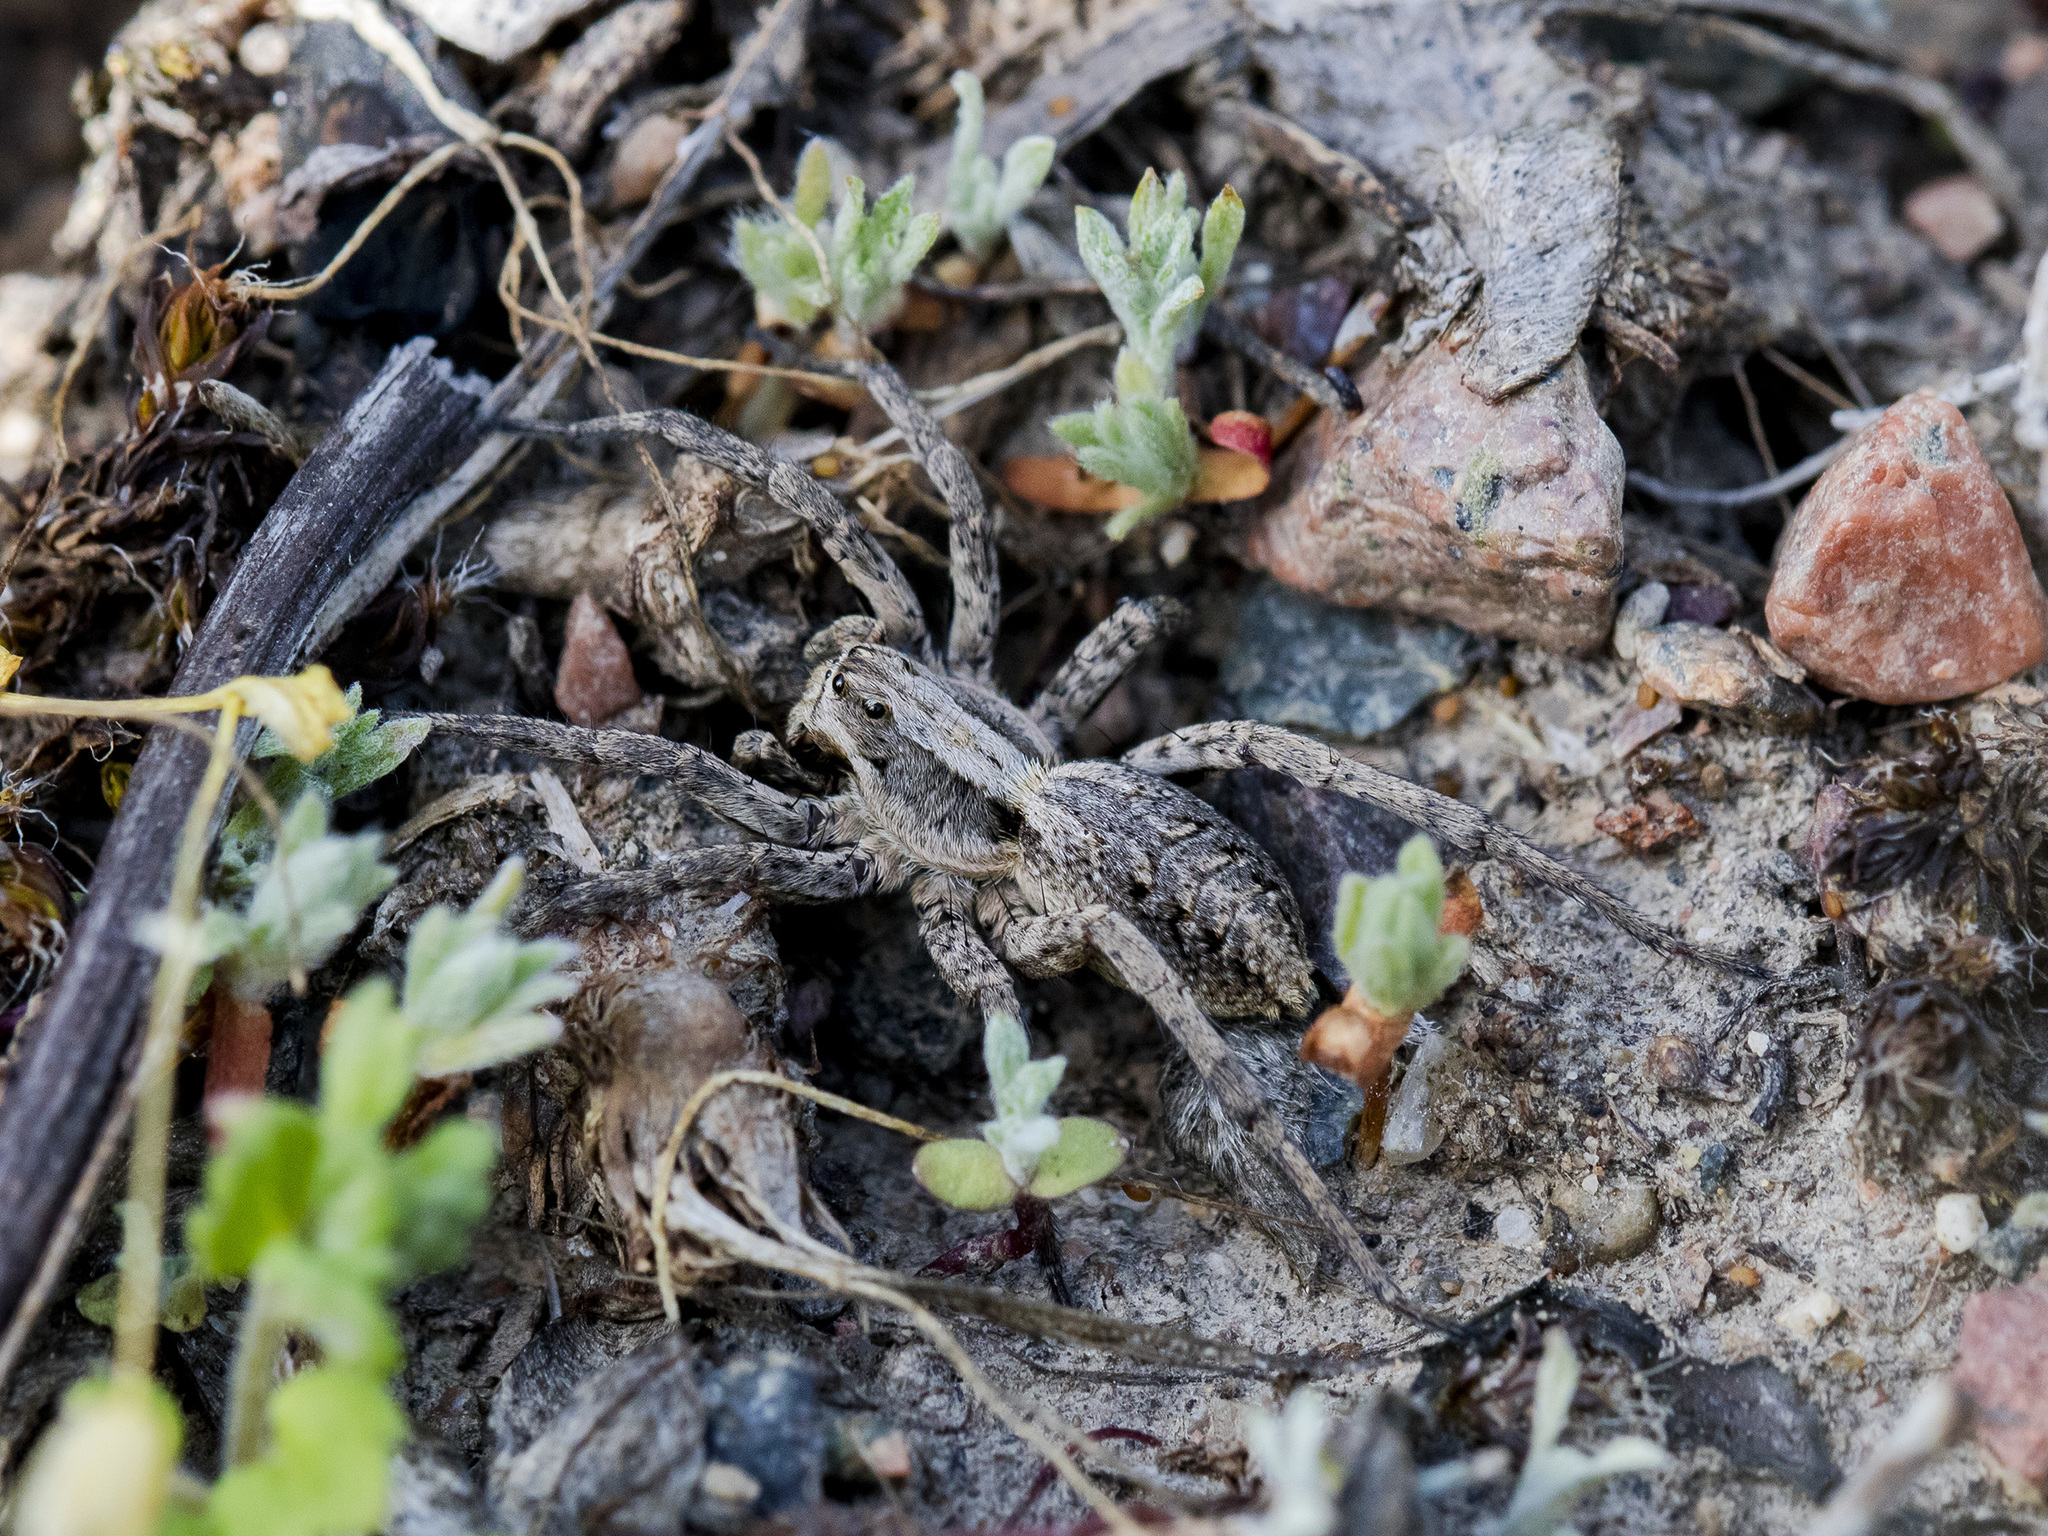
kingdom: Animalia
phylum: Arthropoda
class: Arachnida
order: Araneae
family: Lycosidae
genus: Alopecosa
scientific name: Alopecosa cursor
